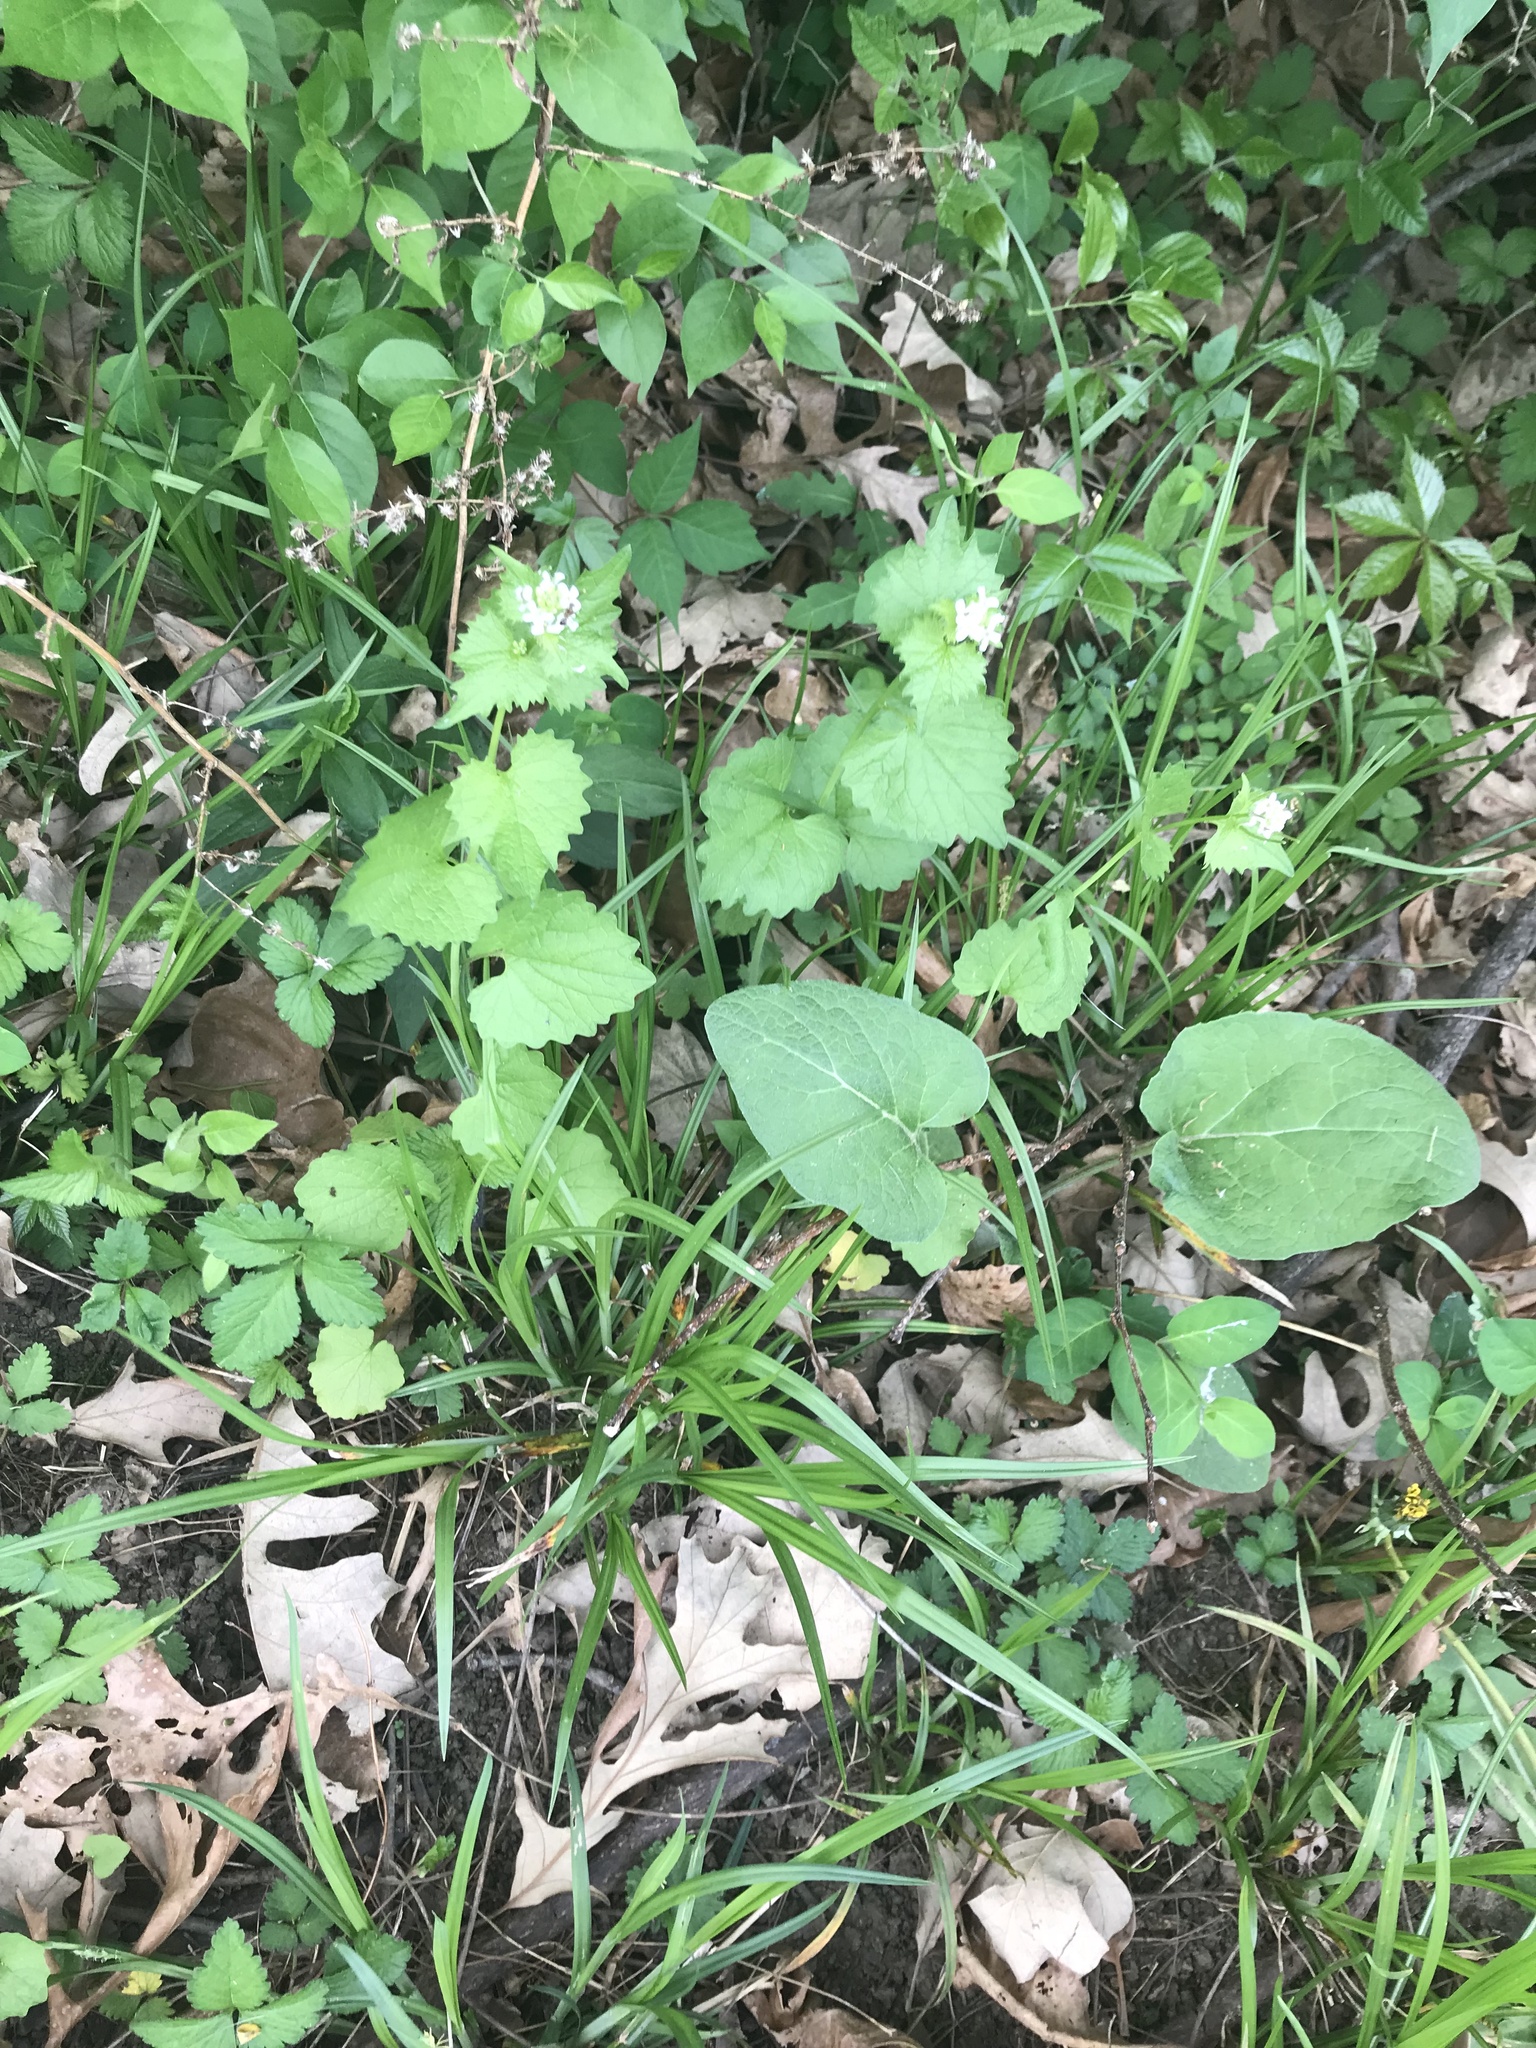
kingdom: Plantae
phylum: Tracheophyta
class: Magnoliopsida
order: Brassicales
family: Brassicaceae
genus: Alliaria
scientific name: Alliaria petiolata
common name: Garlic mustard
